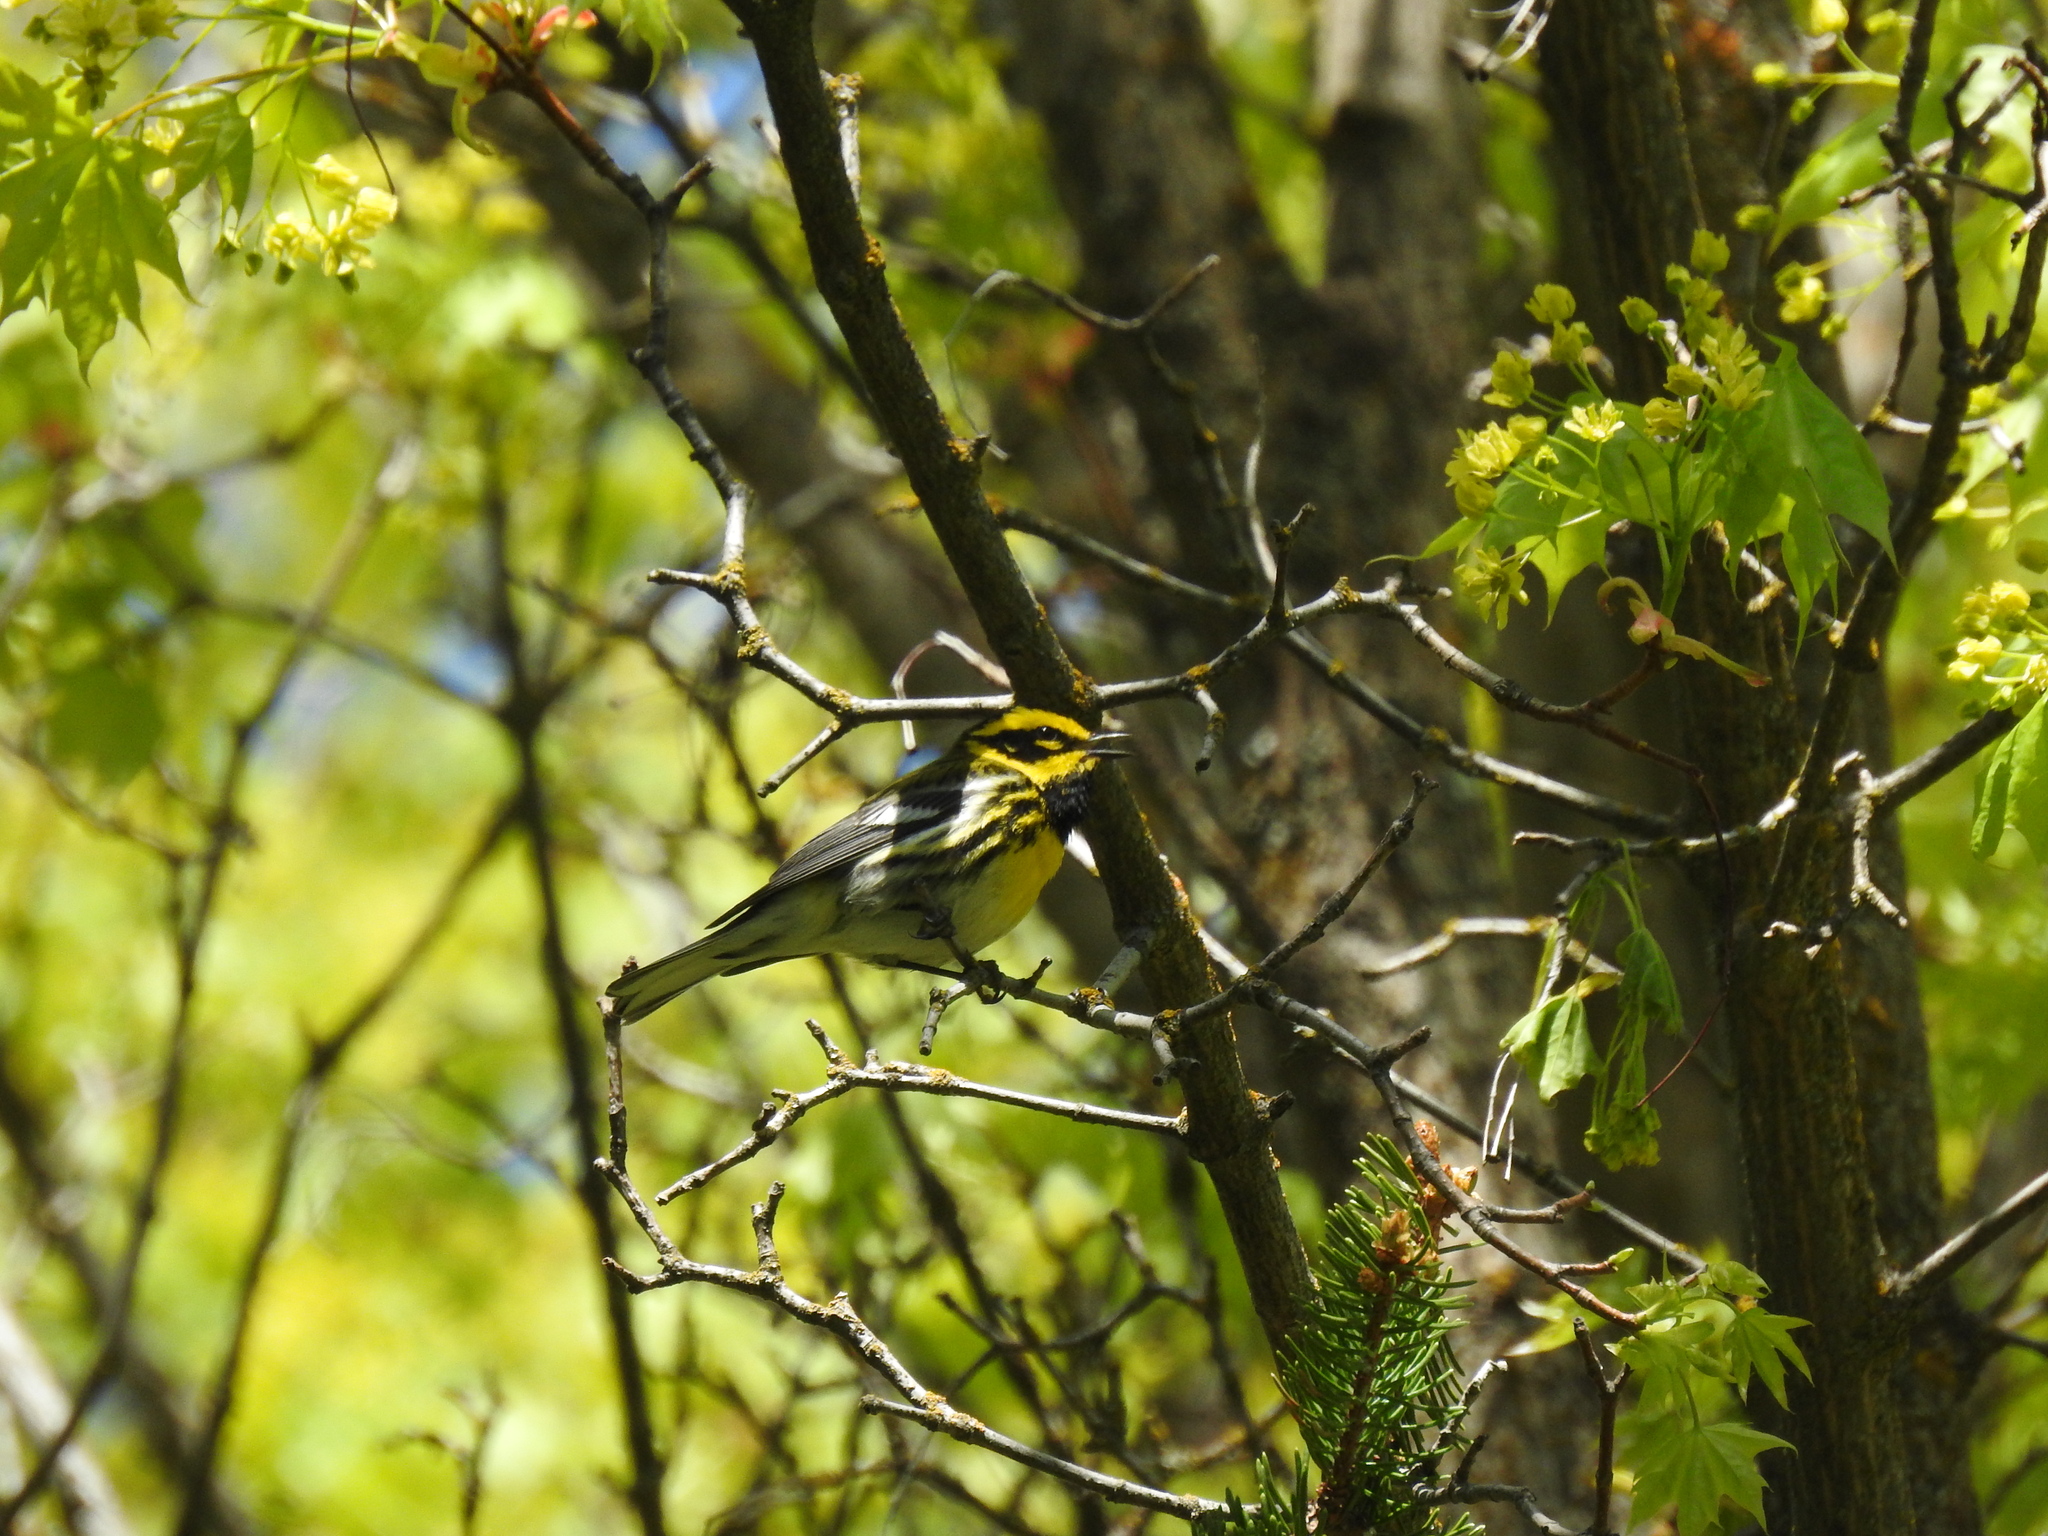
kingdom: Animalia
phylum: Chordata
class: Aves
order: Passeriformes
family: Parulidae
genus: Setophaga
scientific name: Setophaga townsendi
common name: Townsend's warbler
